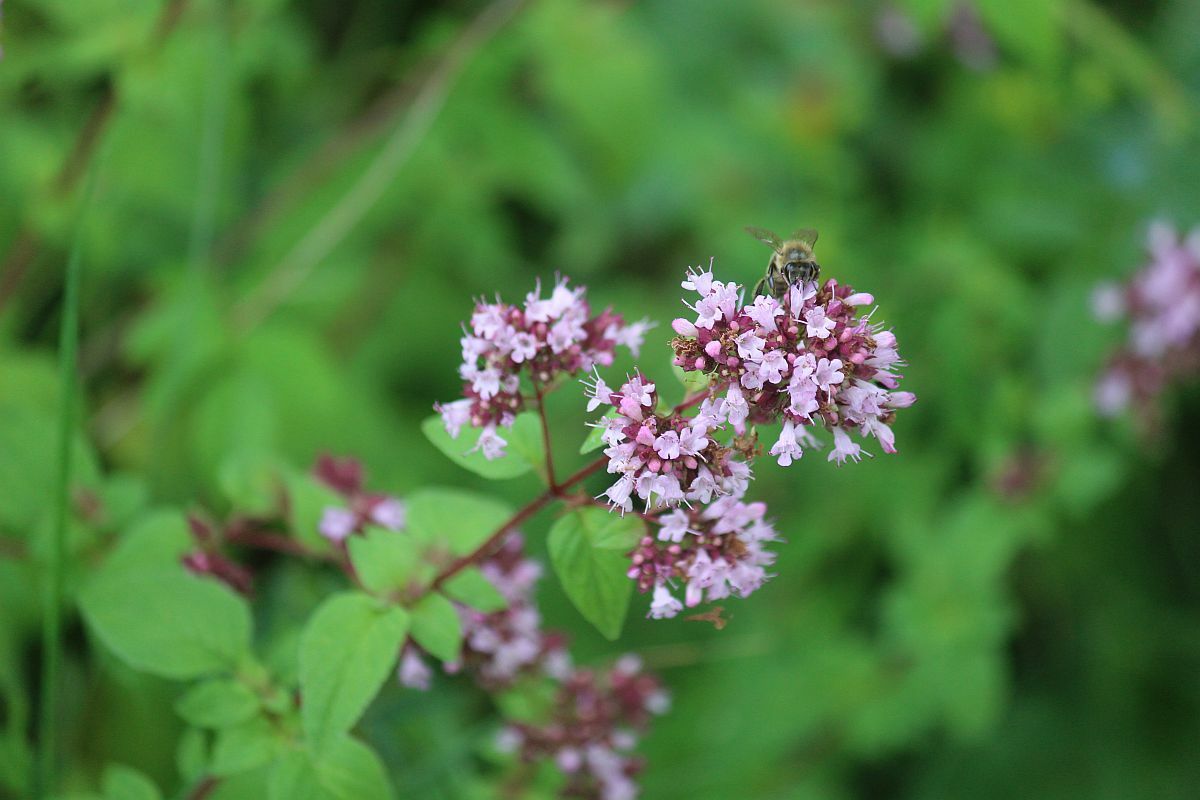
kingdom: Plantae
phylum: Tracheophyta
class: Magnoliopsida
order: Lamiales
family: Lamiaceae
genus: Origanum
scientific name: Origanum vulgare
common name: Wild marjoram
